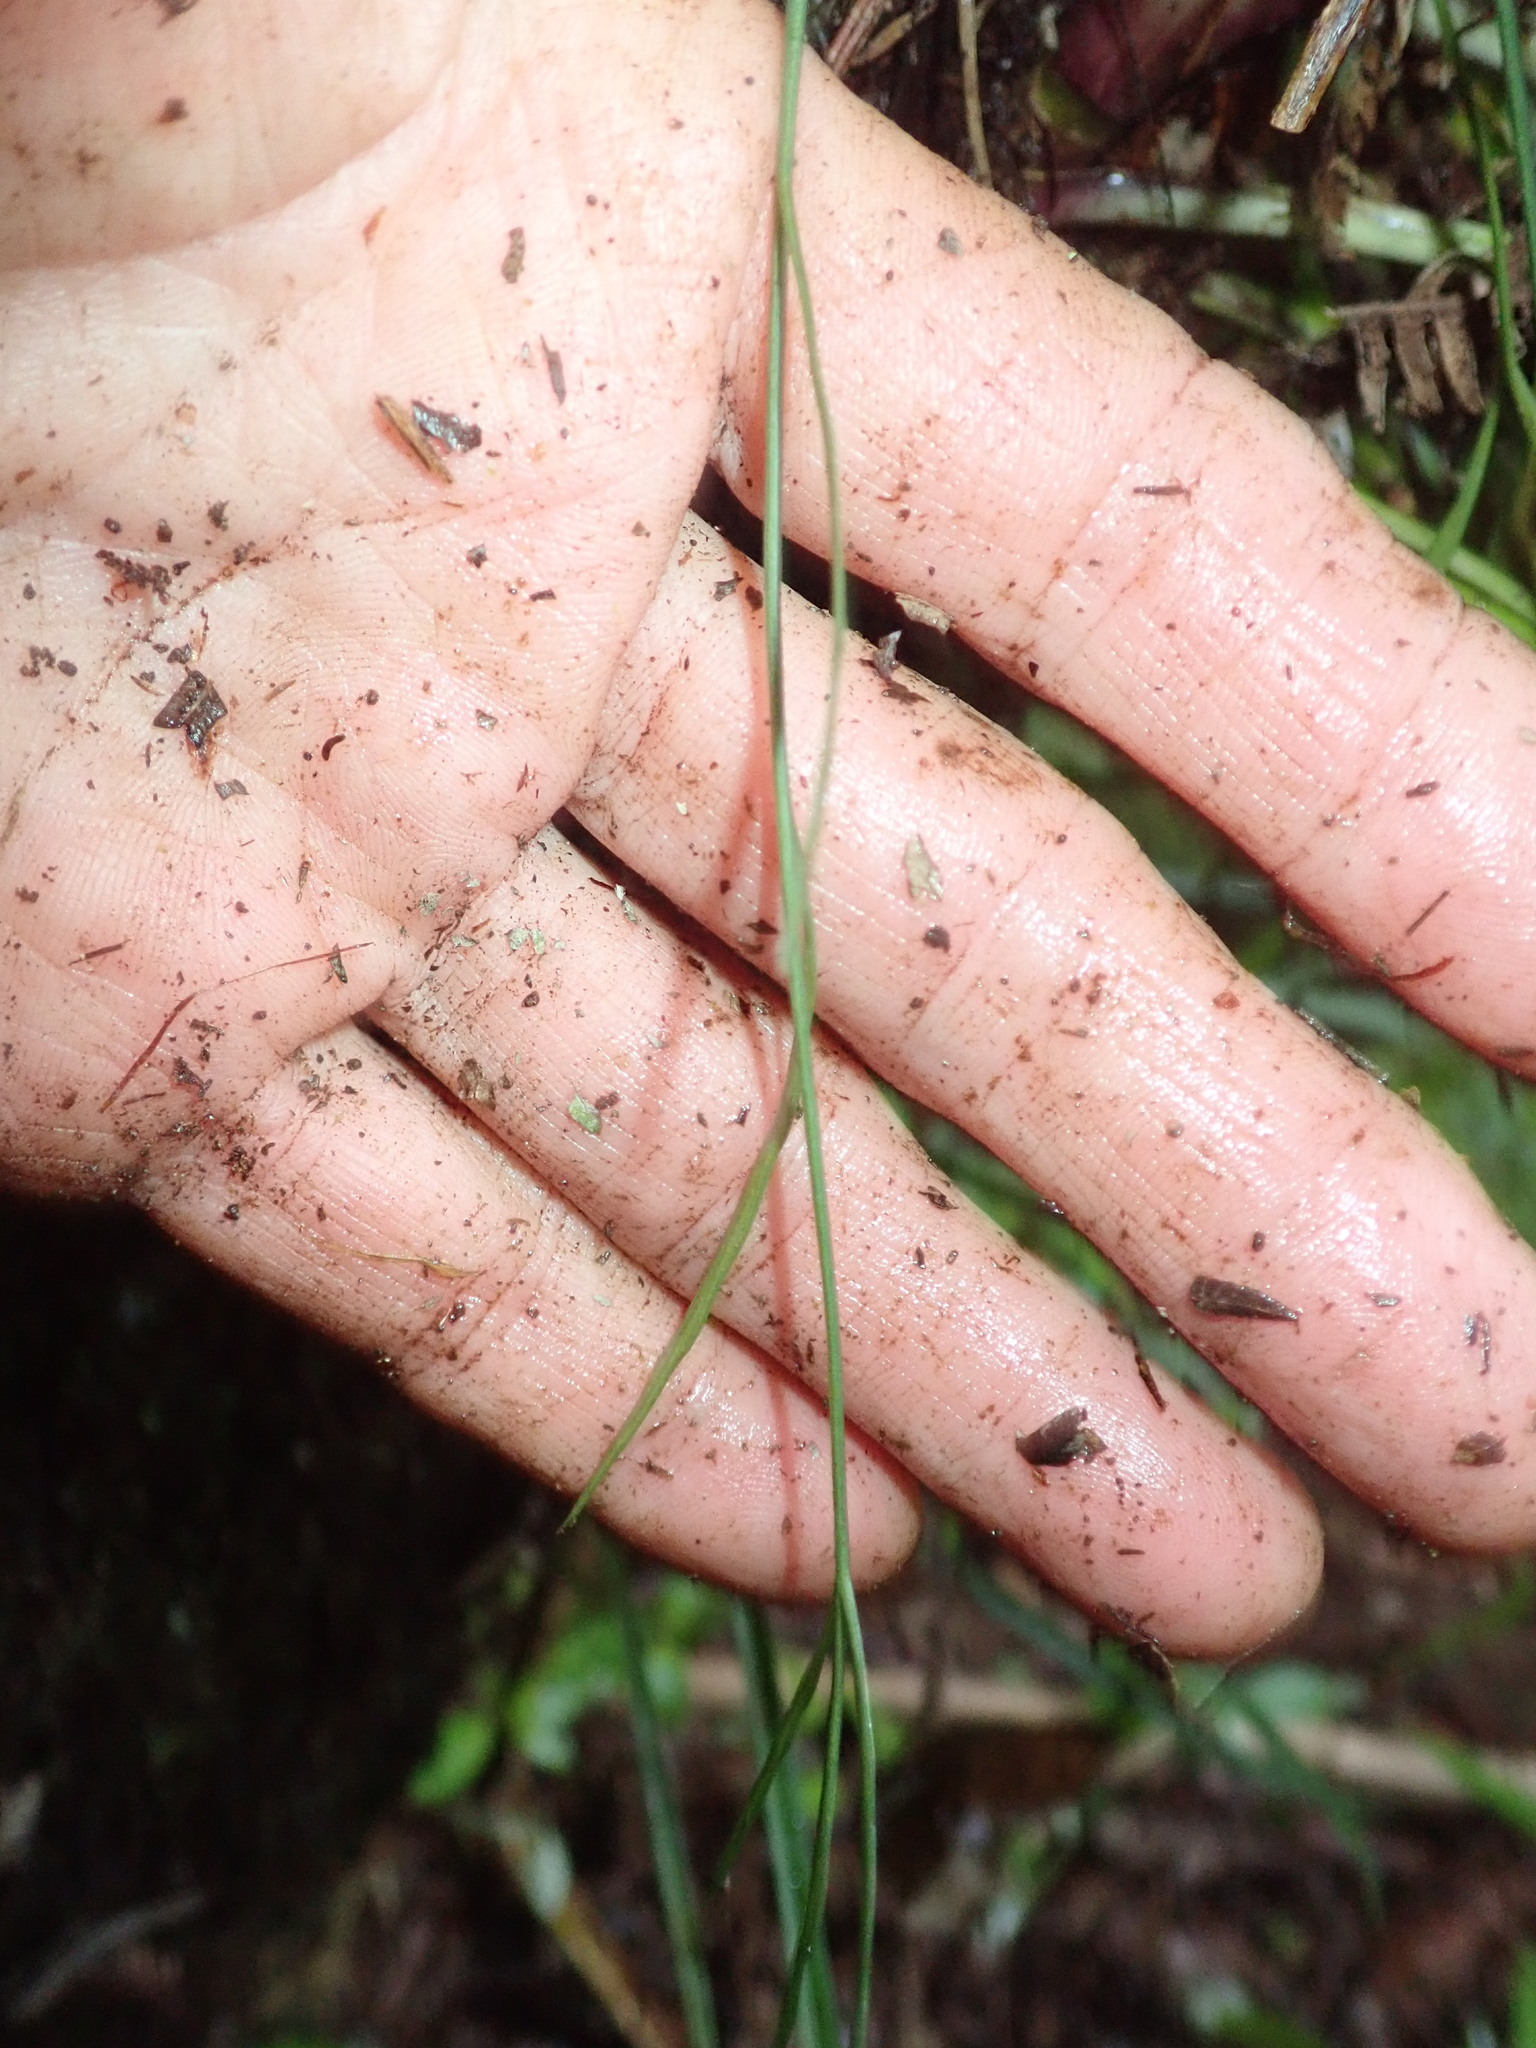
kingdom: Plantae
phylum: Tracheophyta
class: Polypodiopsida
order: Polypodiales
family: Aspleniaceae
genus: Asplenium
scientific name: Asplenium flaccidum
